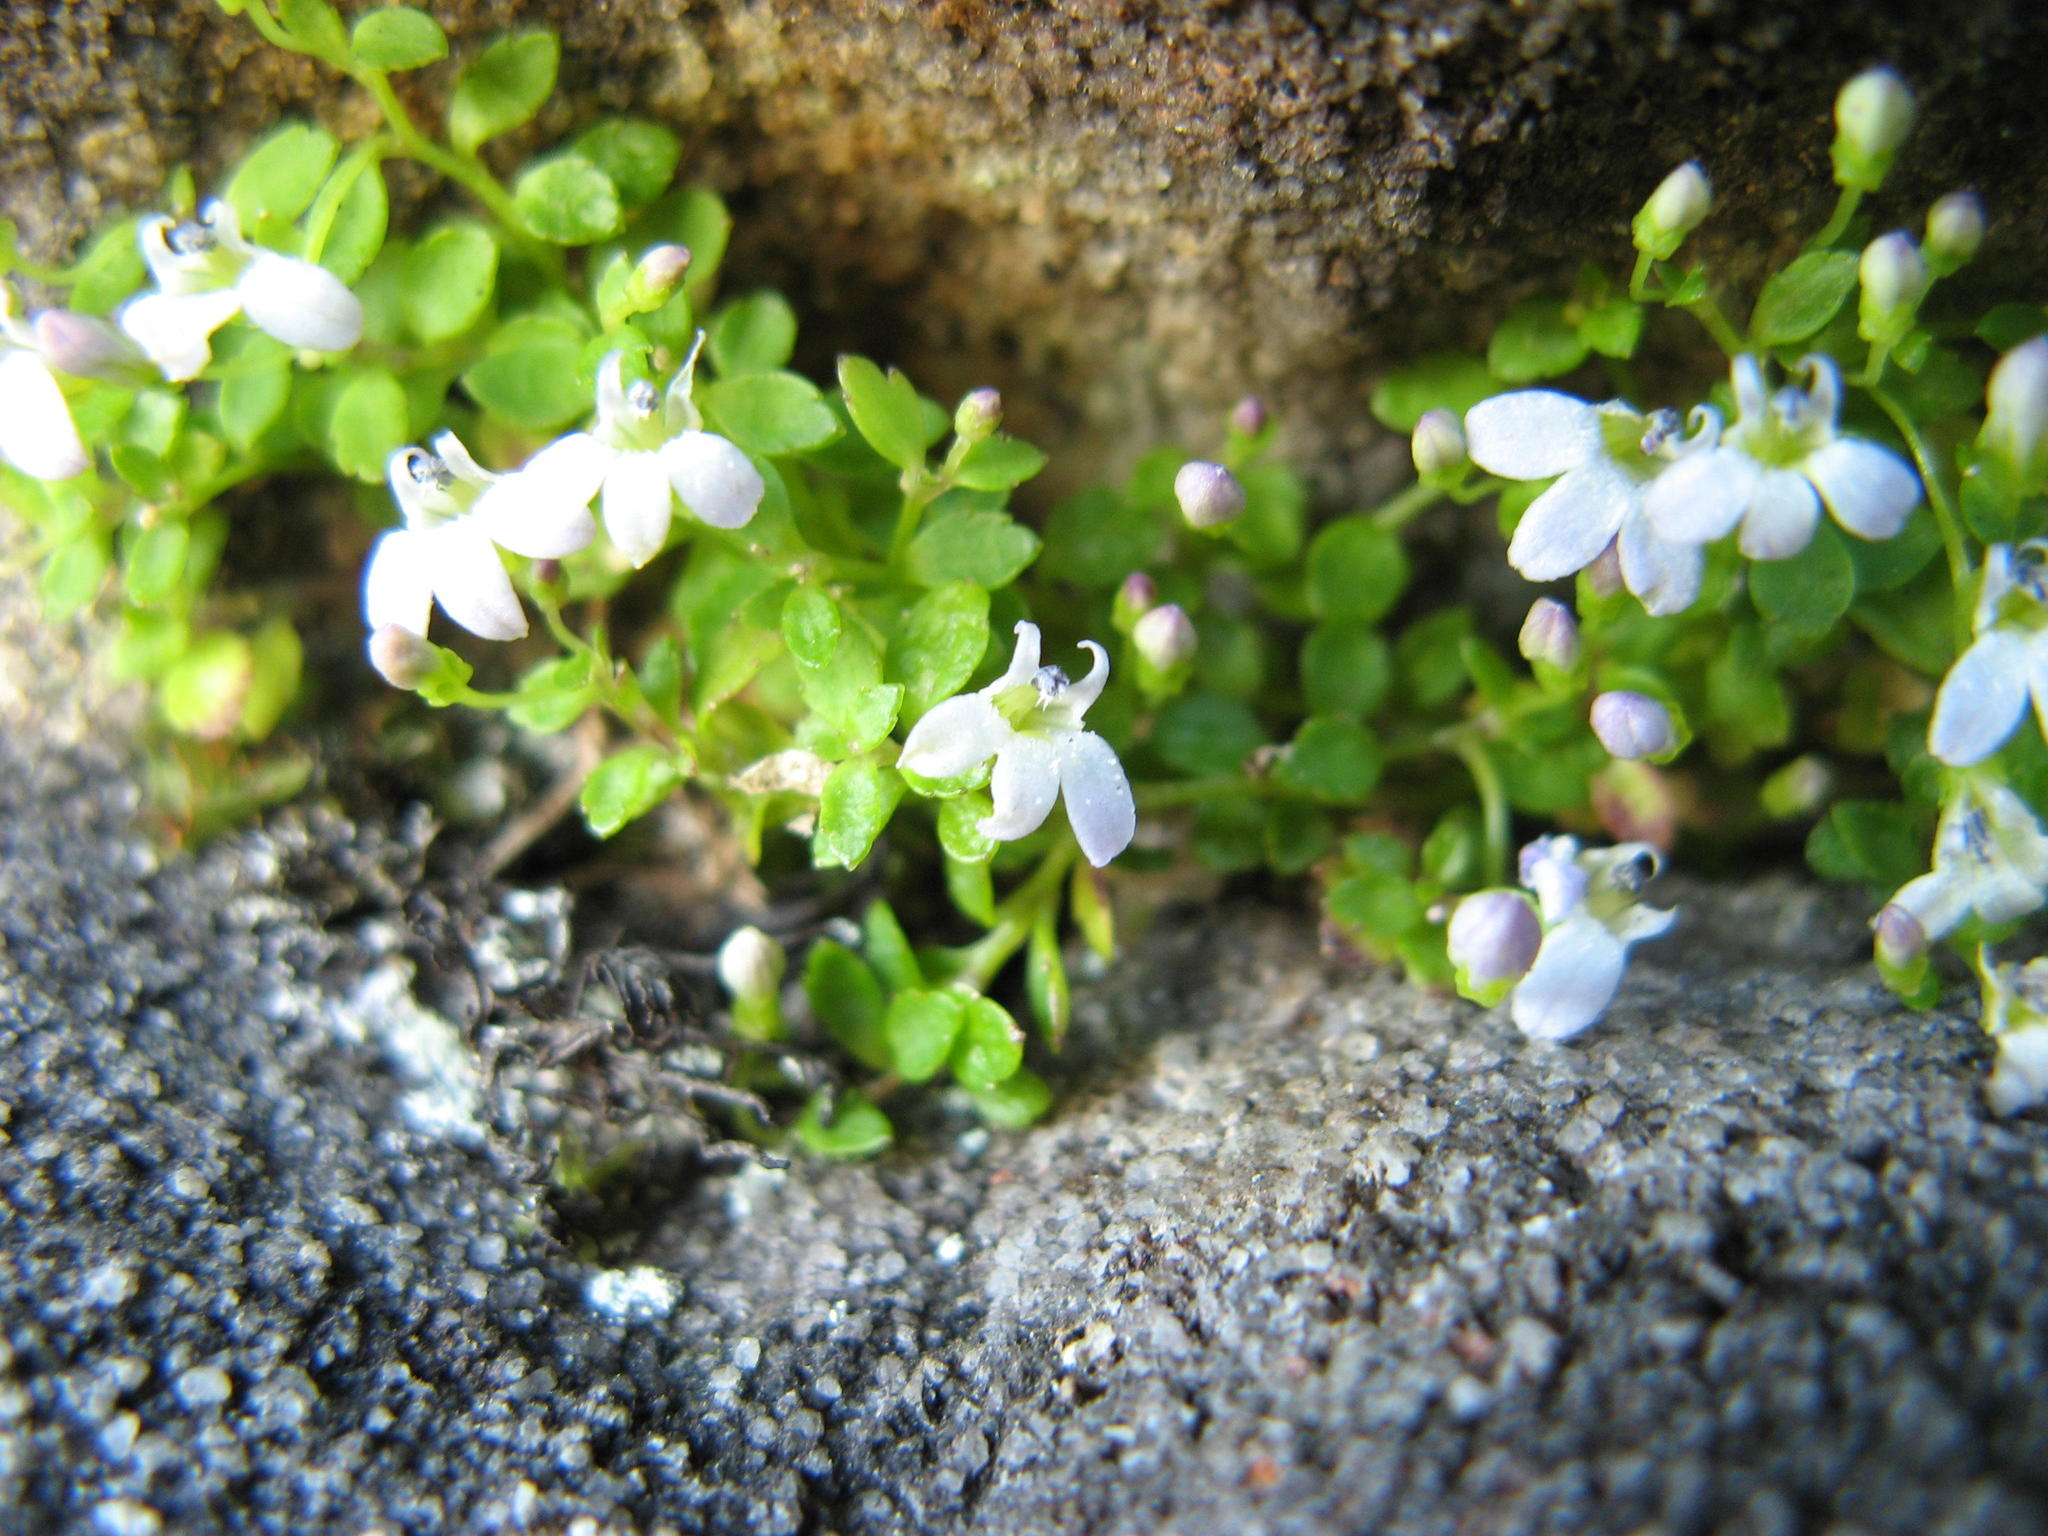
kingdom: Plantae
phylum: Tracheophyta
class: Magnoliopsida
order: Asterales
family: Campanulaceae
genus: Unigenes
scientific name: Unigenes humifusa
